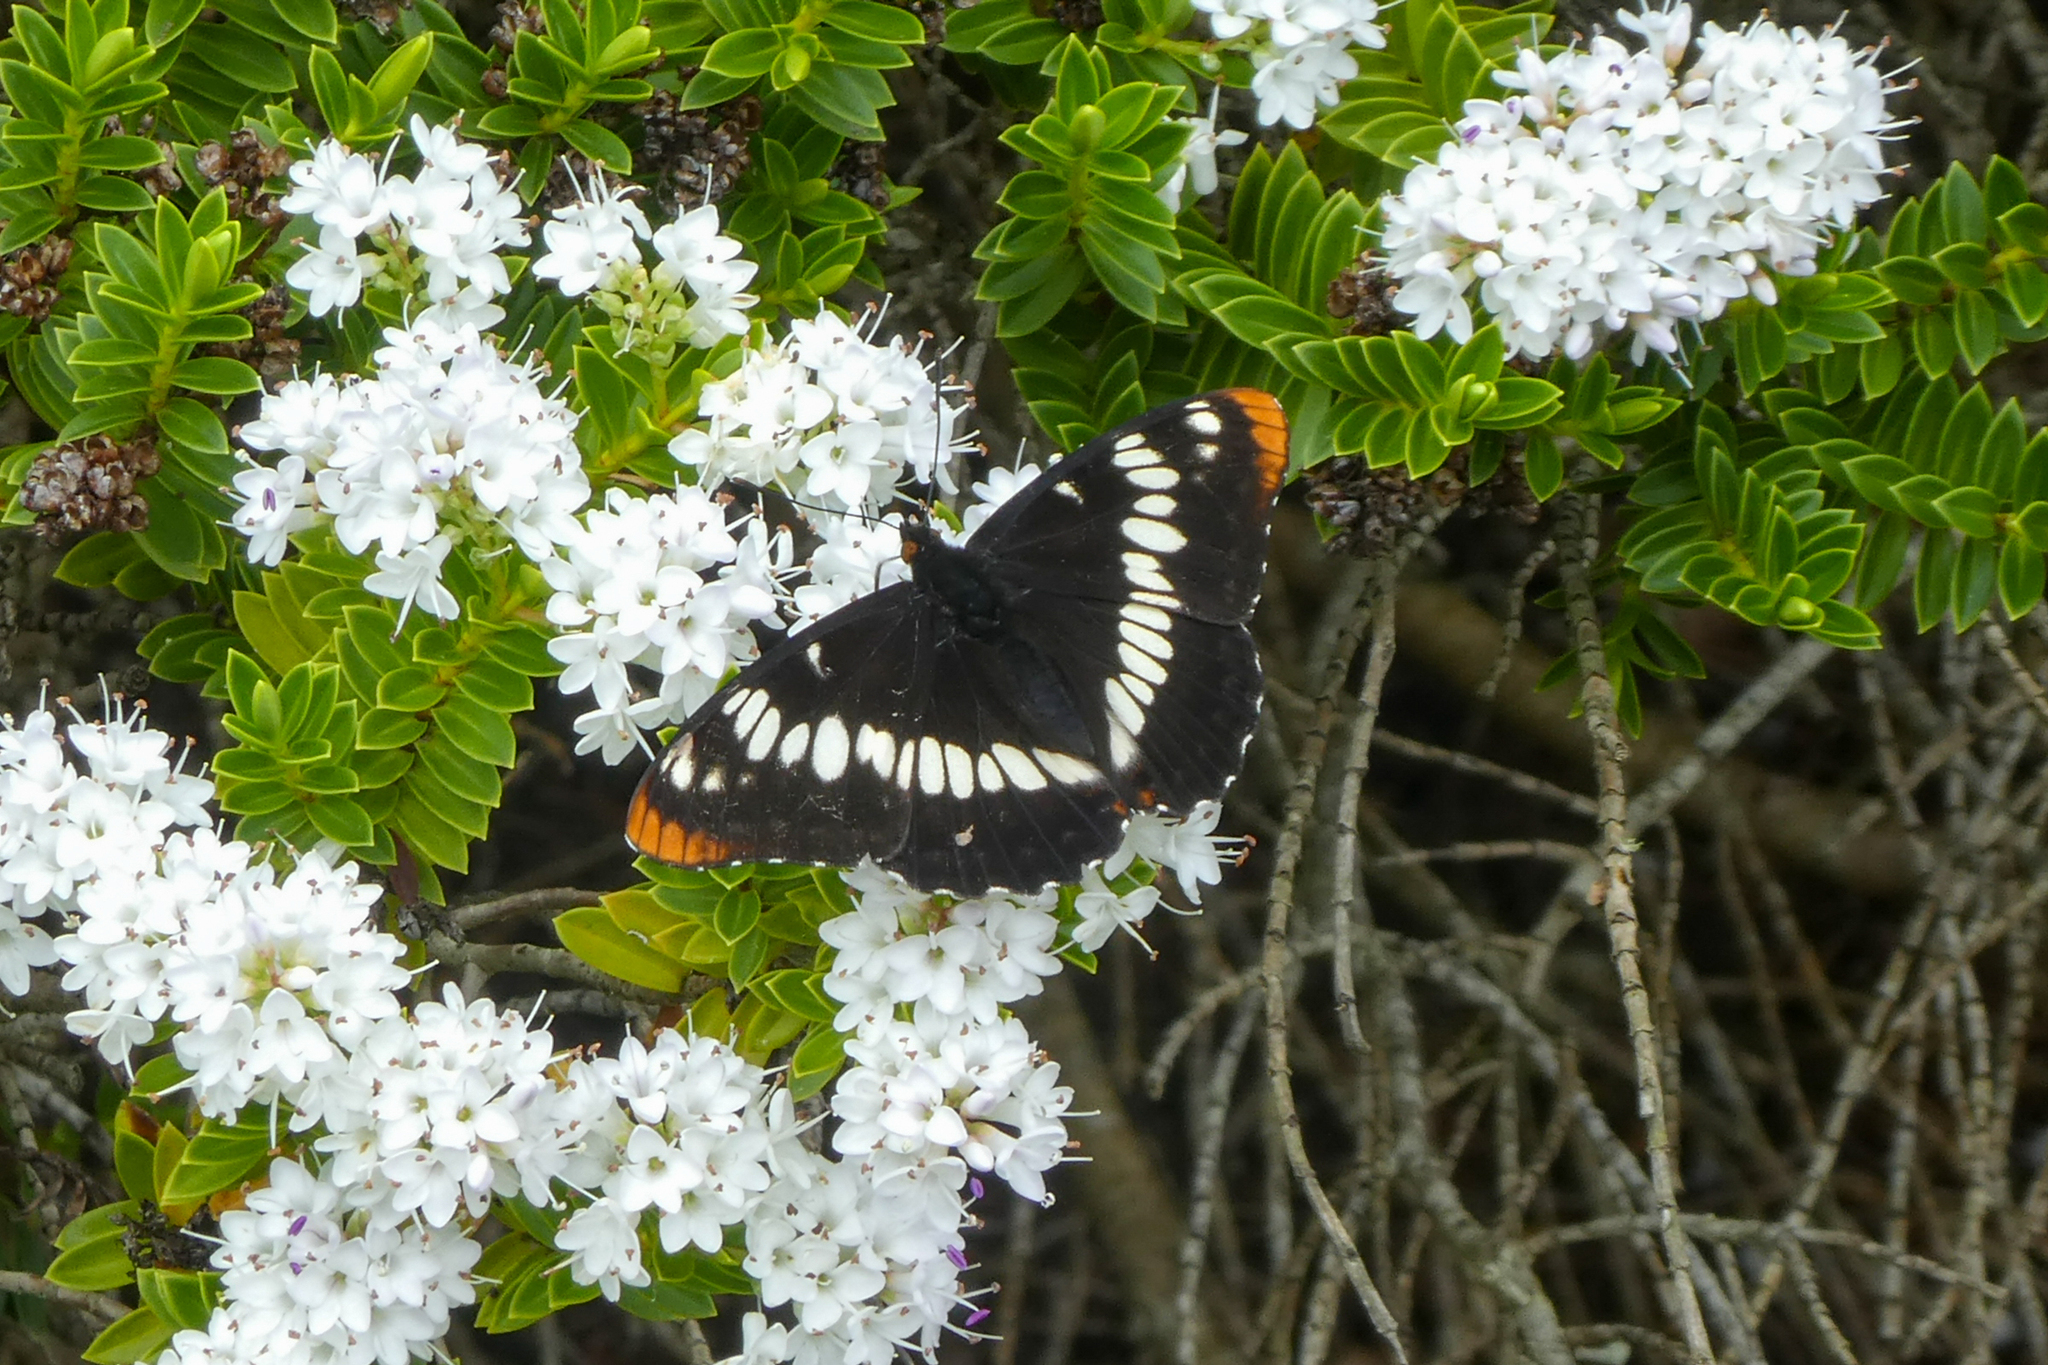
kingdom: Animalia
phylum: Arthropoda
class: Insecta
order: Lepidoptera
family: Nymphalidae
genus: Limenitis
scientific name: Limenitis lorquini
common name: Lorquin's admiral
